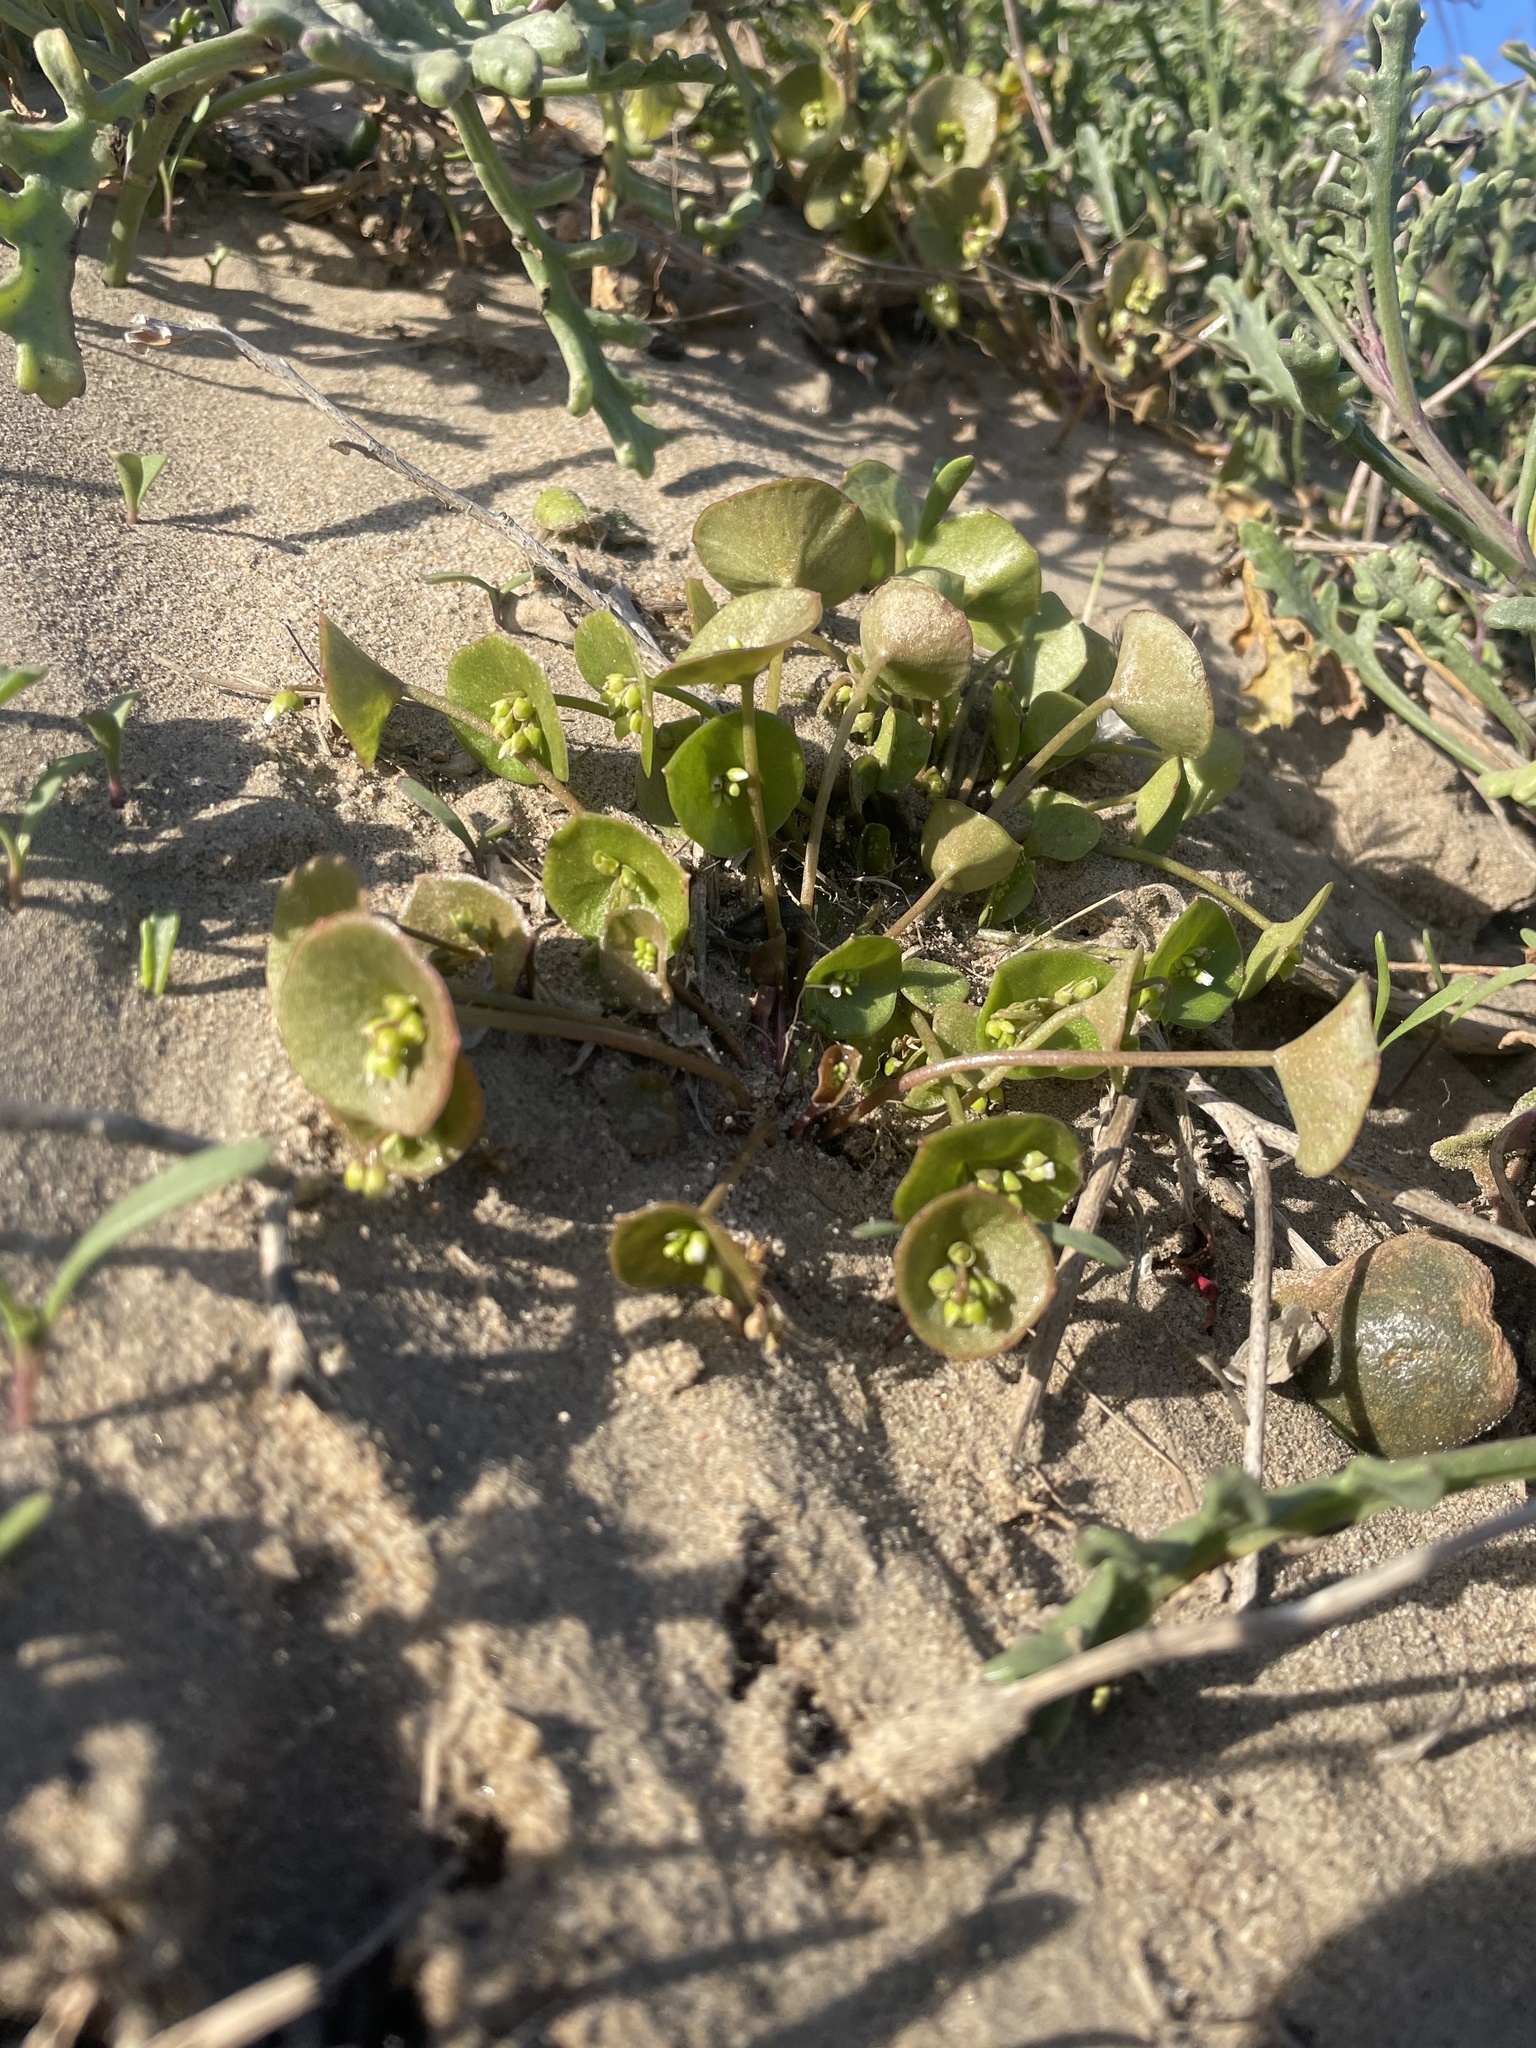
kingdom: Plantae
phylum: Tracheophyta
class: Magnoliopsida
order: Caryophyllales
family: Montiaceae
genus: Claytonia
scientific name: Claytonia perfoliata
